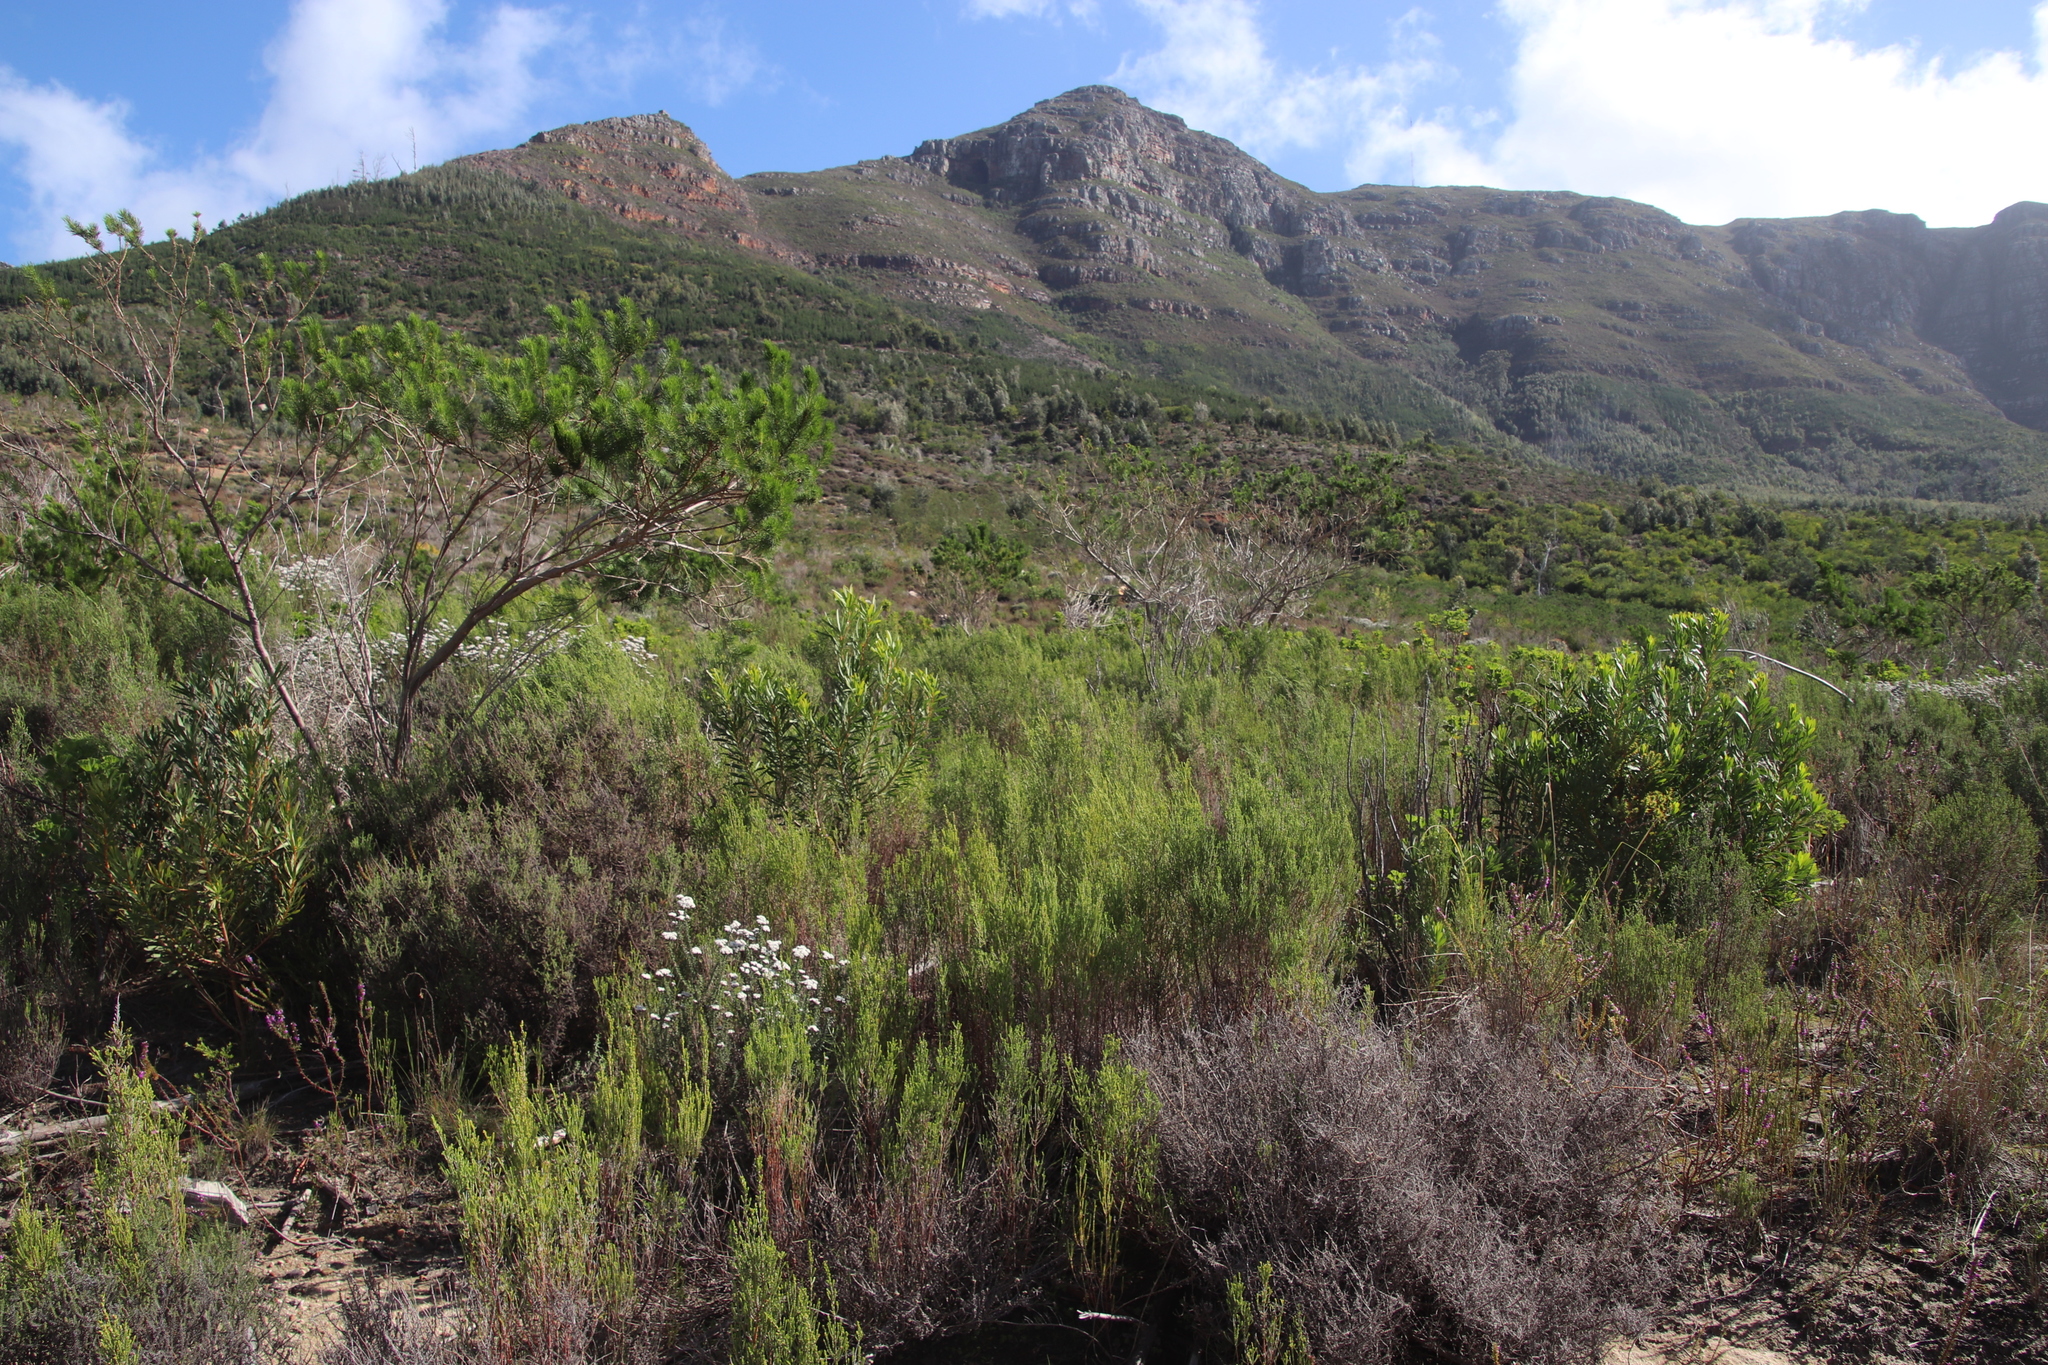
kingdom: Plantae
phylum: Tracheophyta
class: Magnoliopsida
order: Malvales
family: Thymelaeaceae
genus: Passerina
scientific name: Passerina corymbosa
